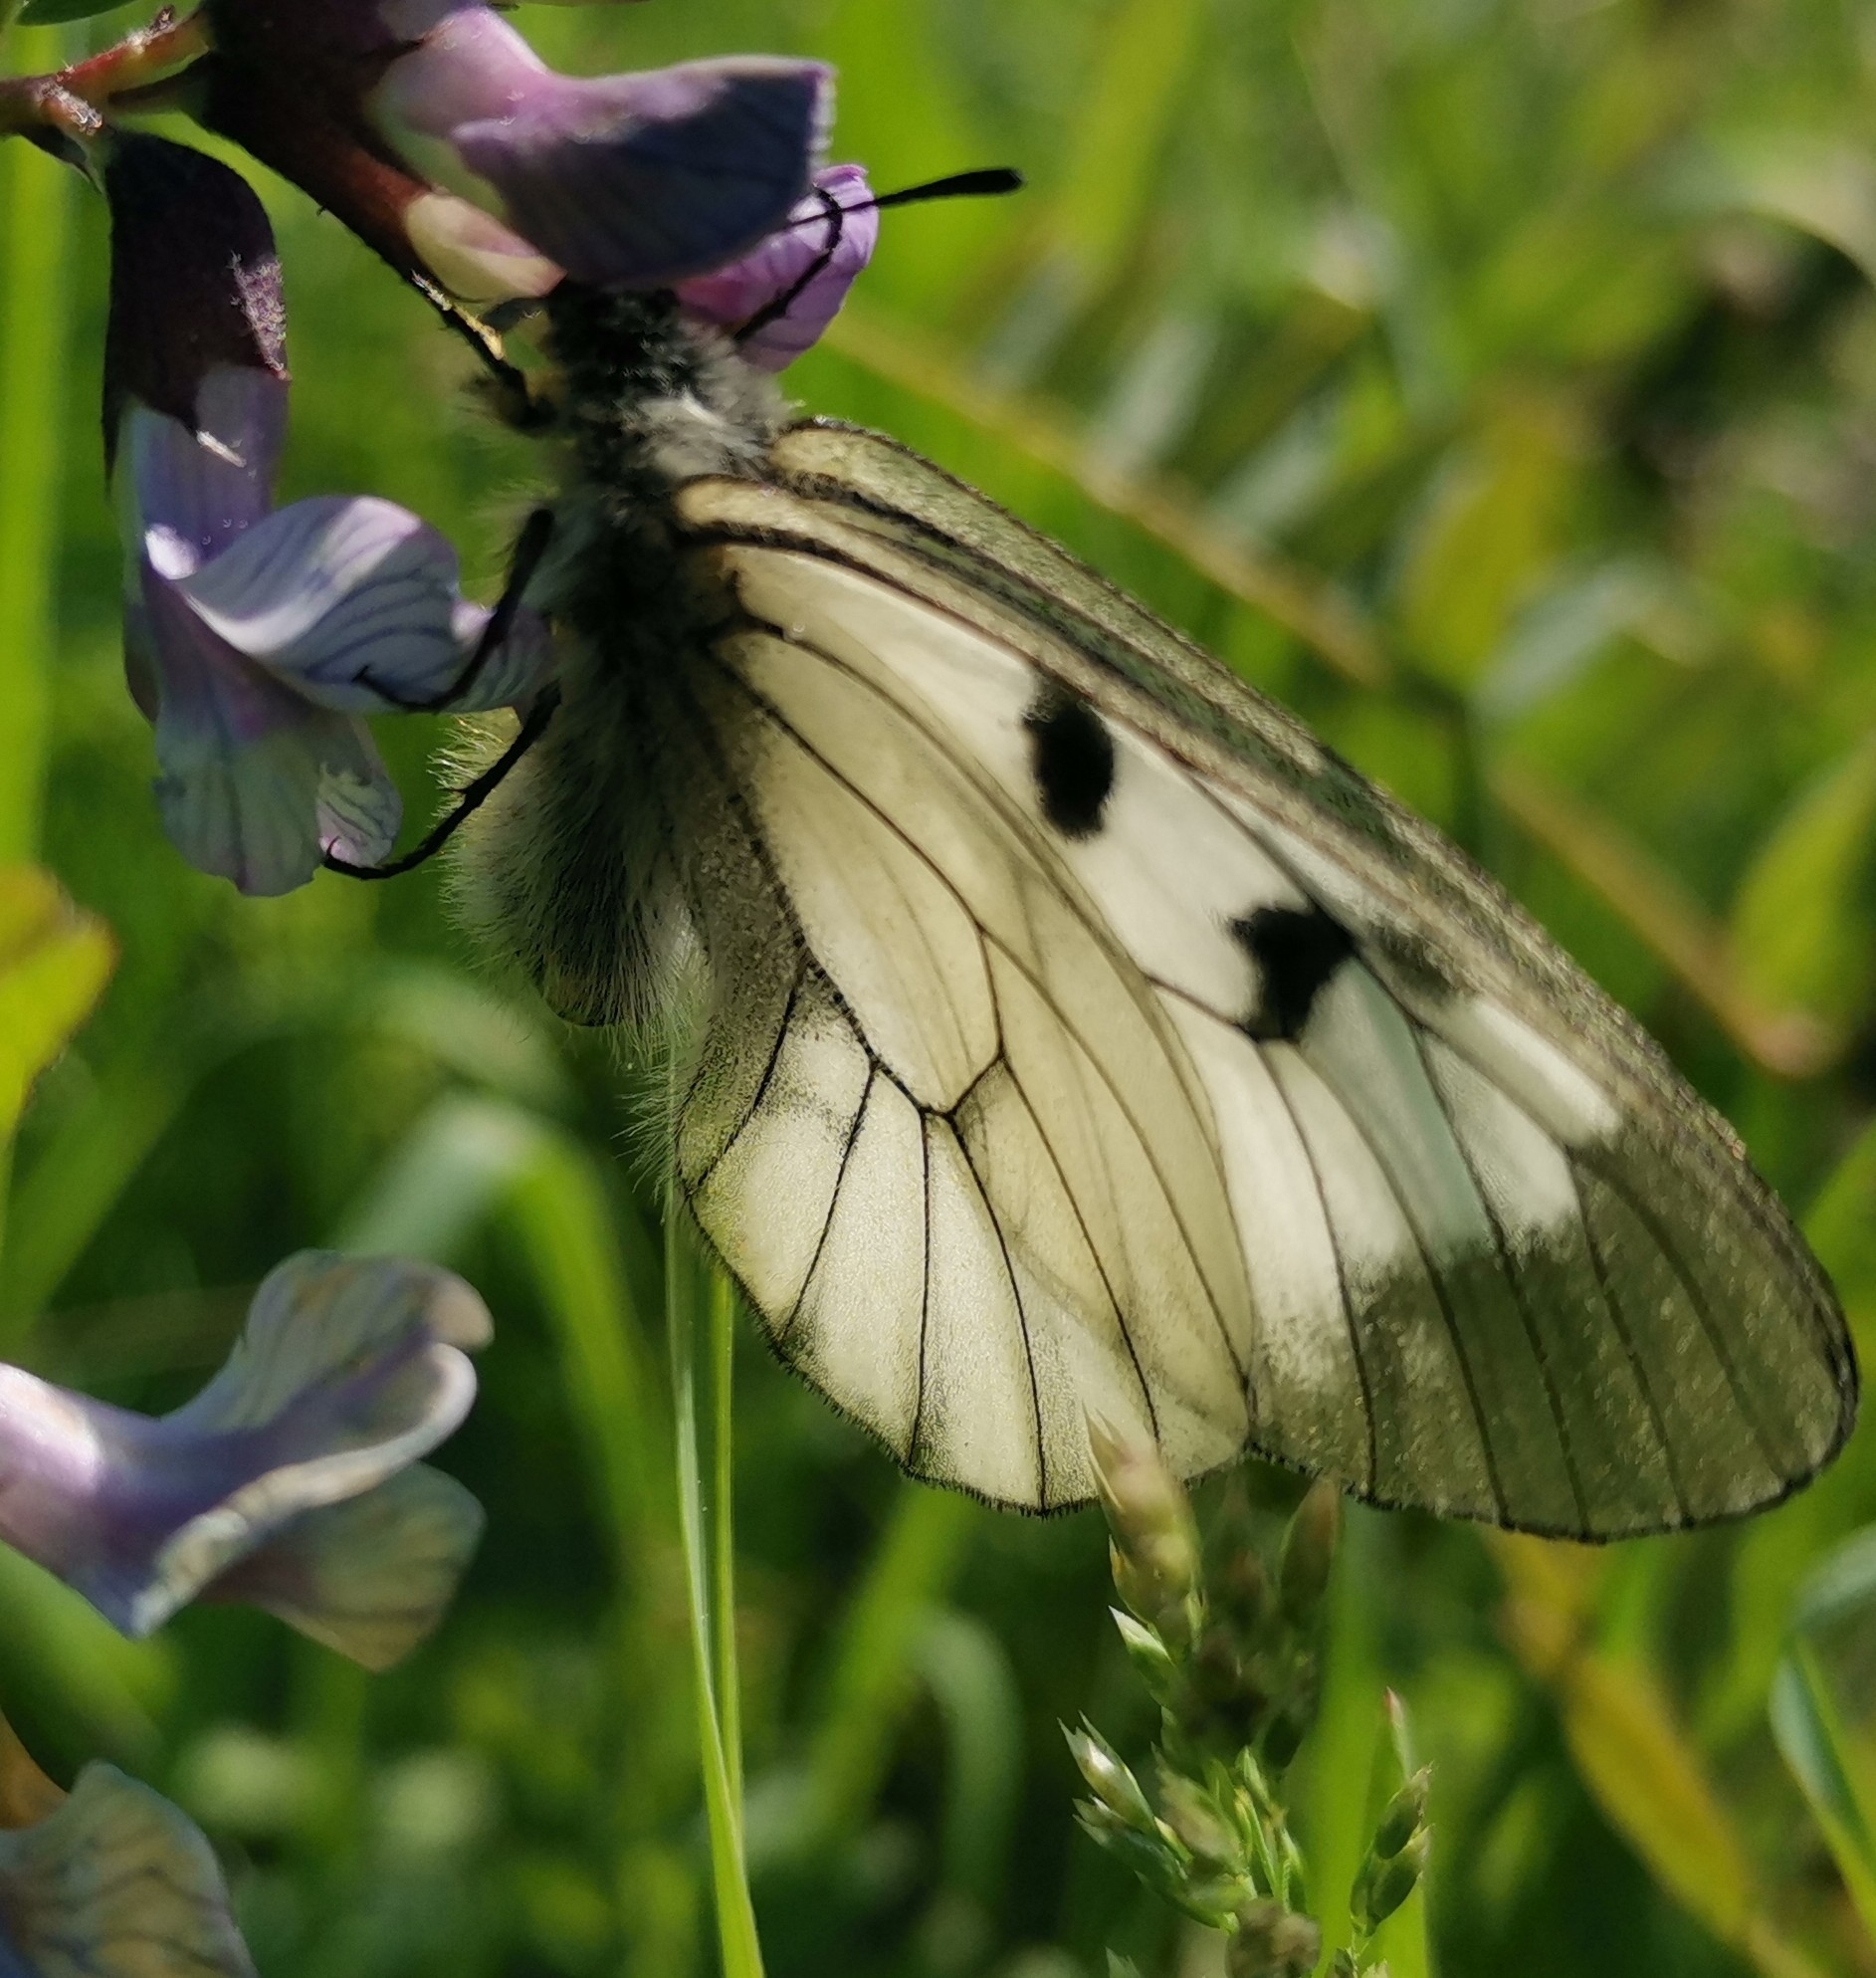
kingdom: Animalia
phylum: Arthropoda
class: Insecta
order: Lepidoptera
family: Papilionidae
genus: Parnassius
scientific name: Parnassius mnemosyne
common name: Clouded apollo
